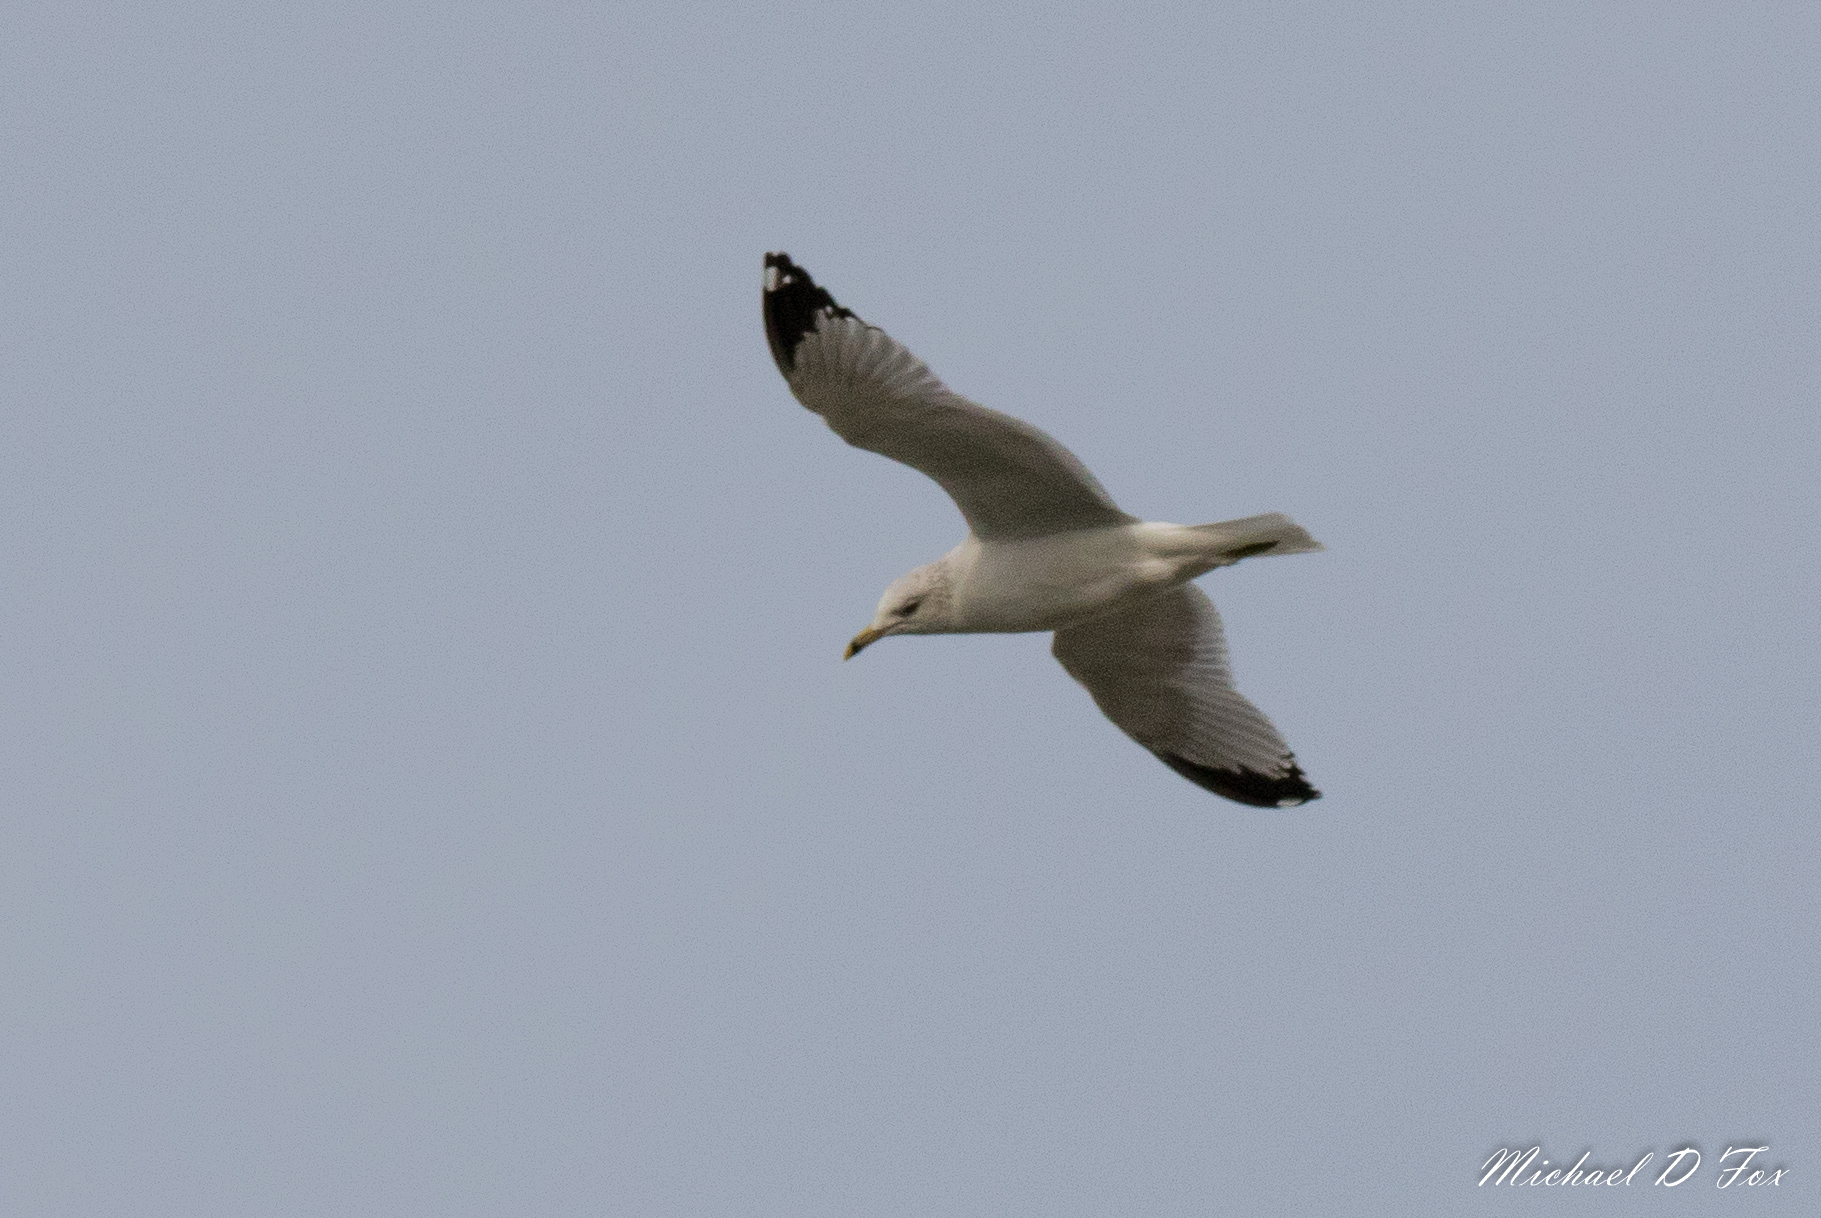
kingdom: Animalia
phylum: Chordata
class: Aves
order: Charadriiformes
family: Laridae
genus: Larus
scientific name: Larus delawarensis
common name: Ring-billed gull
